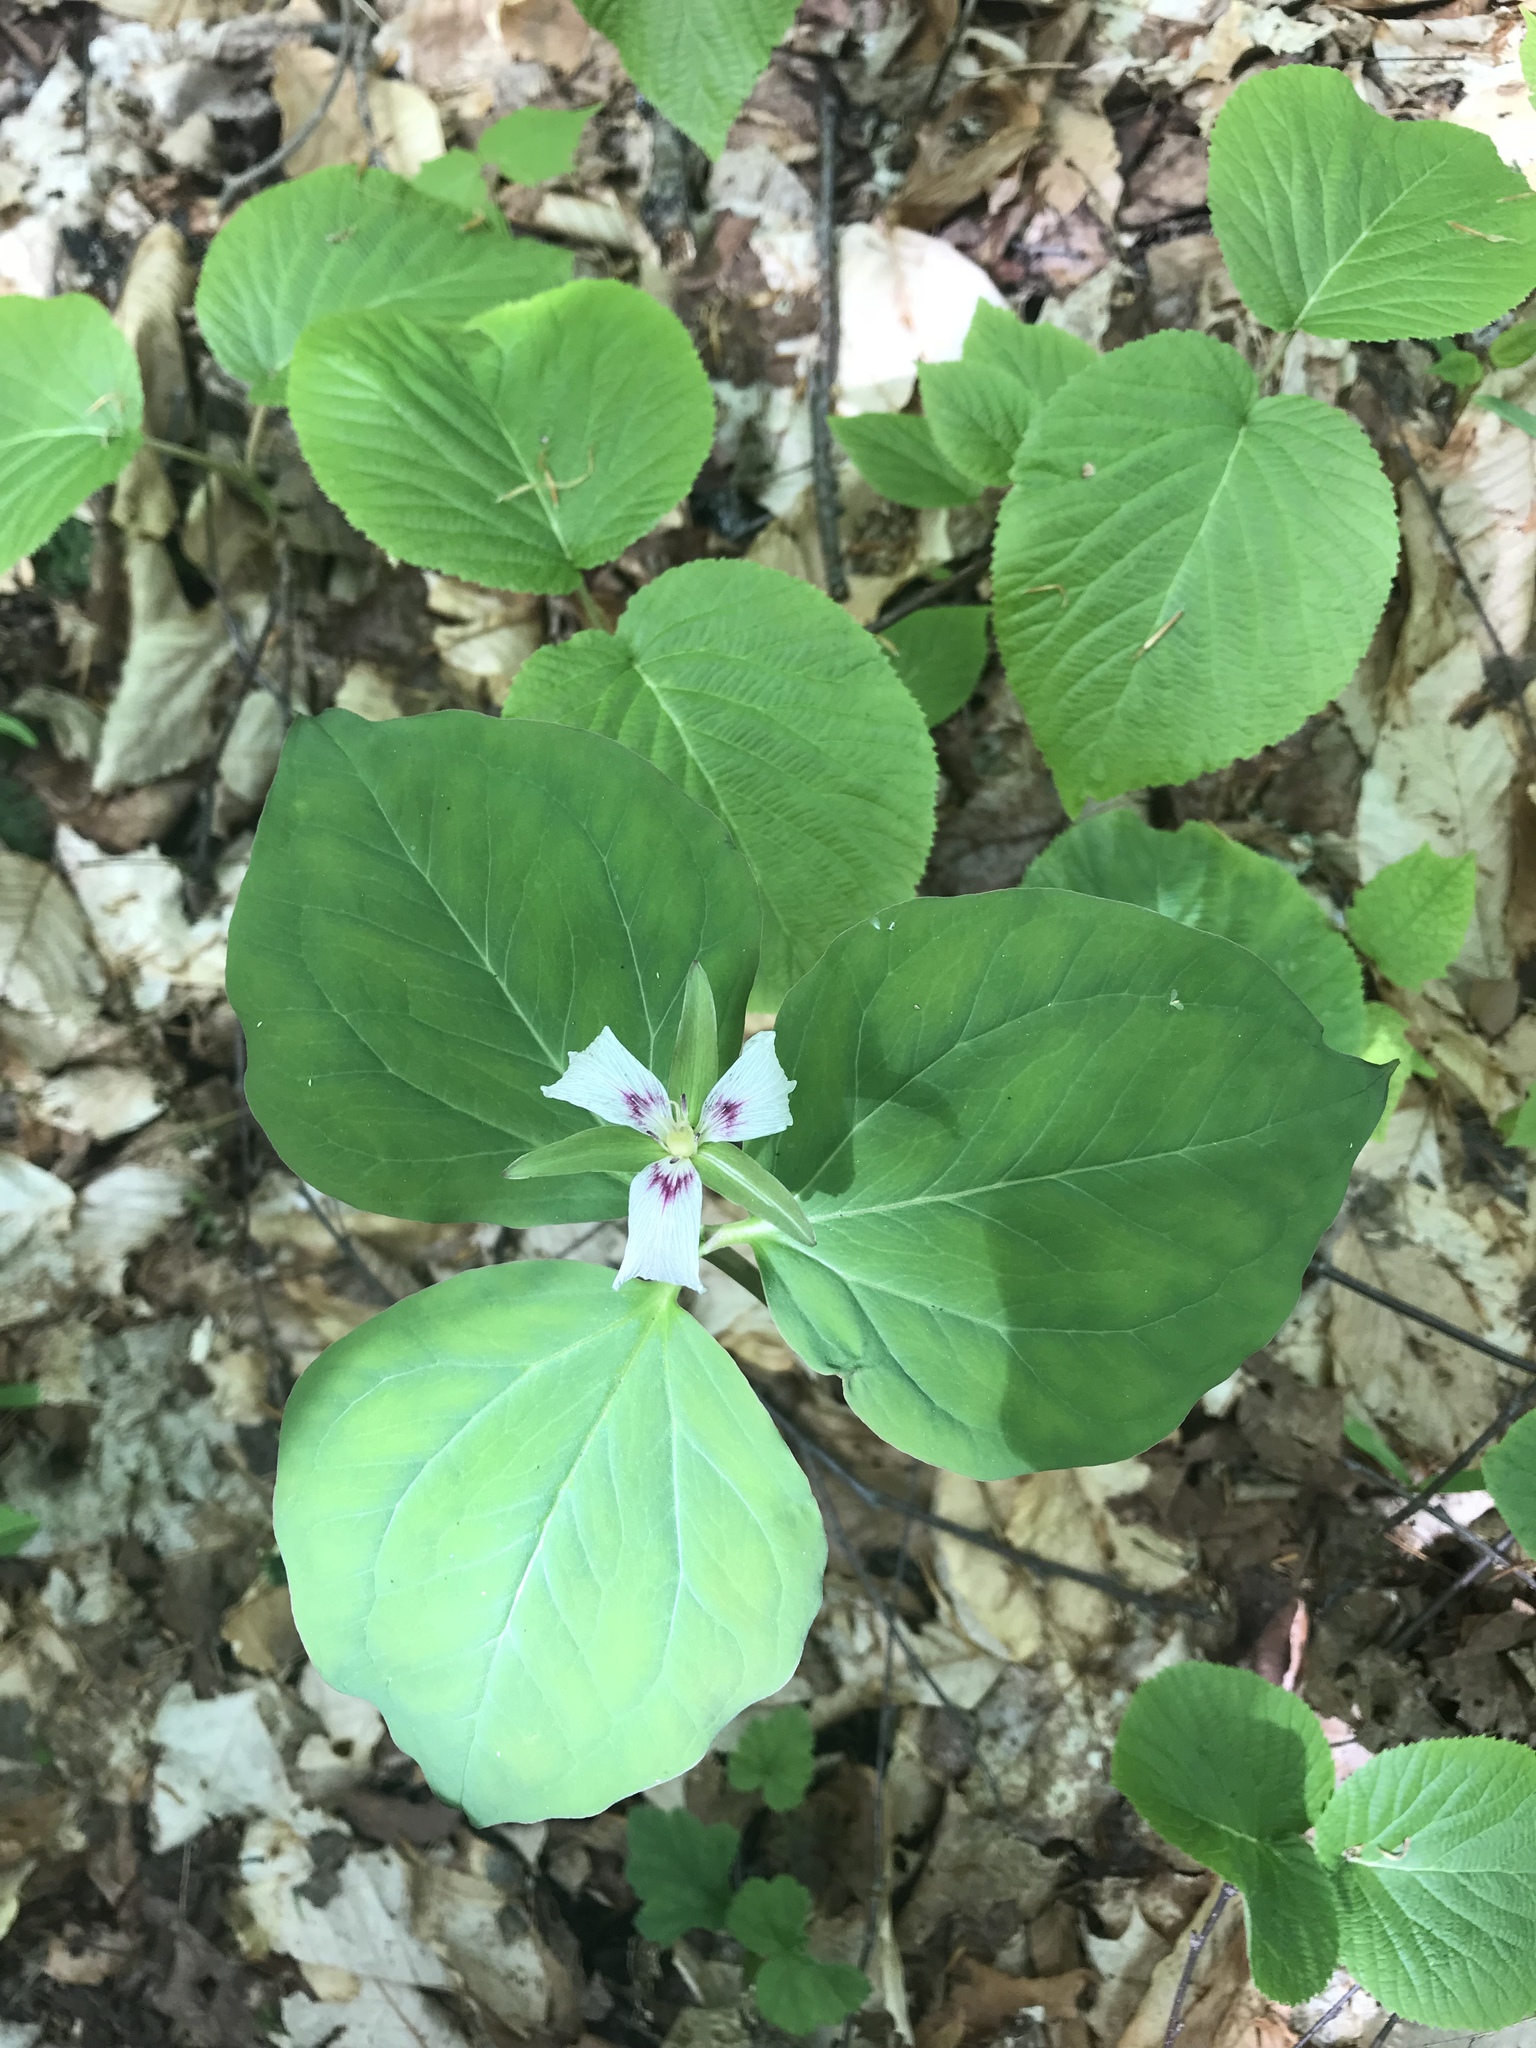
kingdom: Plantae
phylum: Tracheophyta
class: Liliopsida
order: Liliales
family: Melanthiaceae
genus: Trillium
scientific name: Trillium undulatum
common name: Paint trillium
